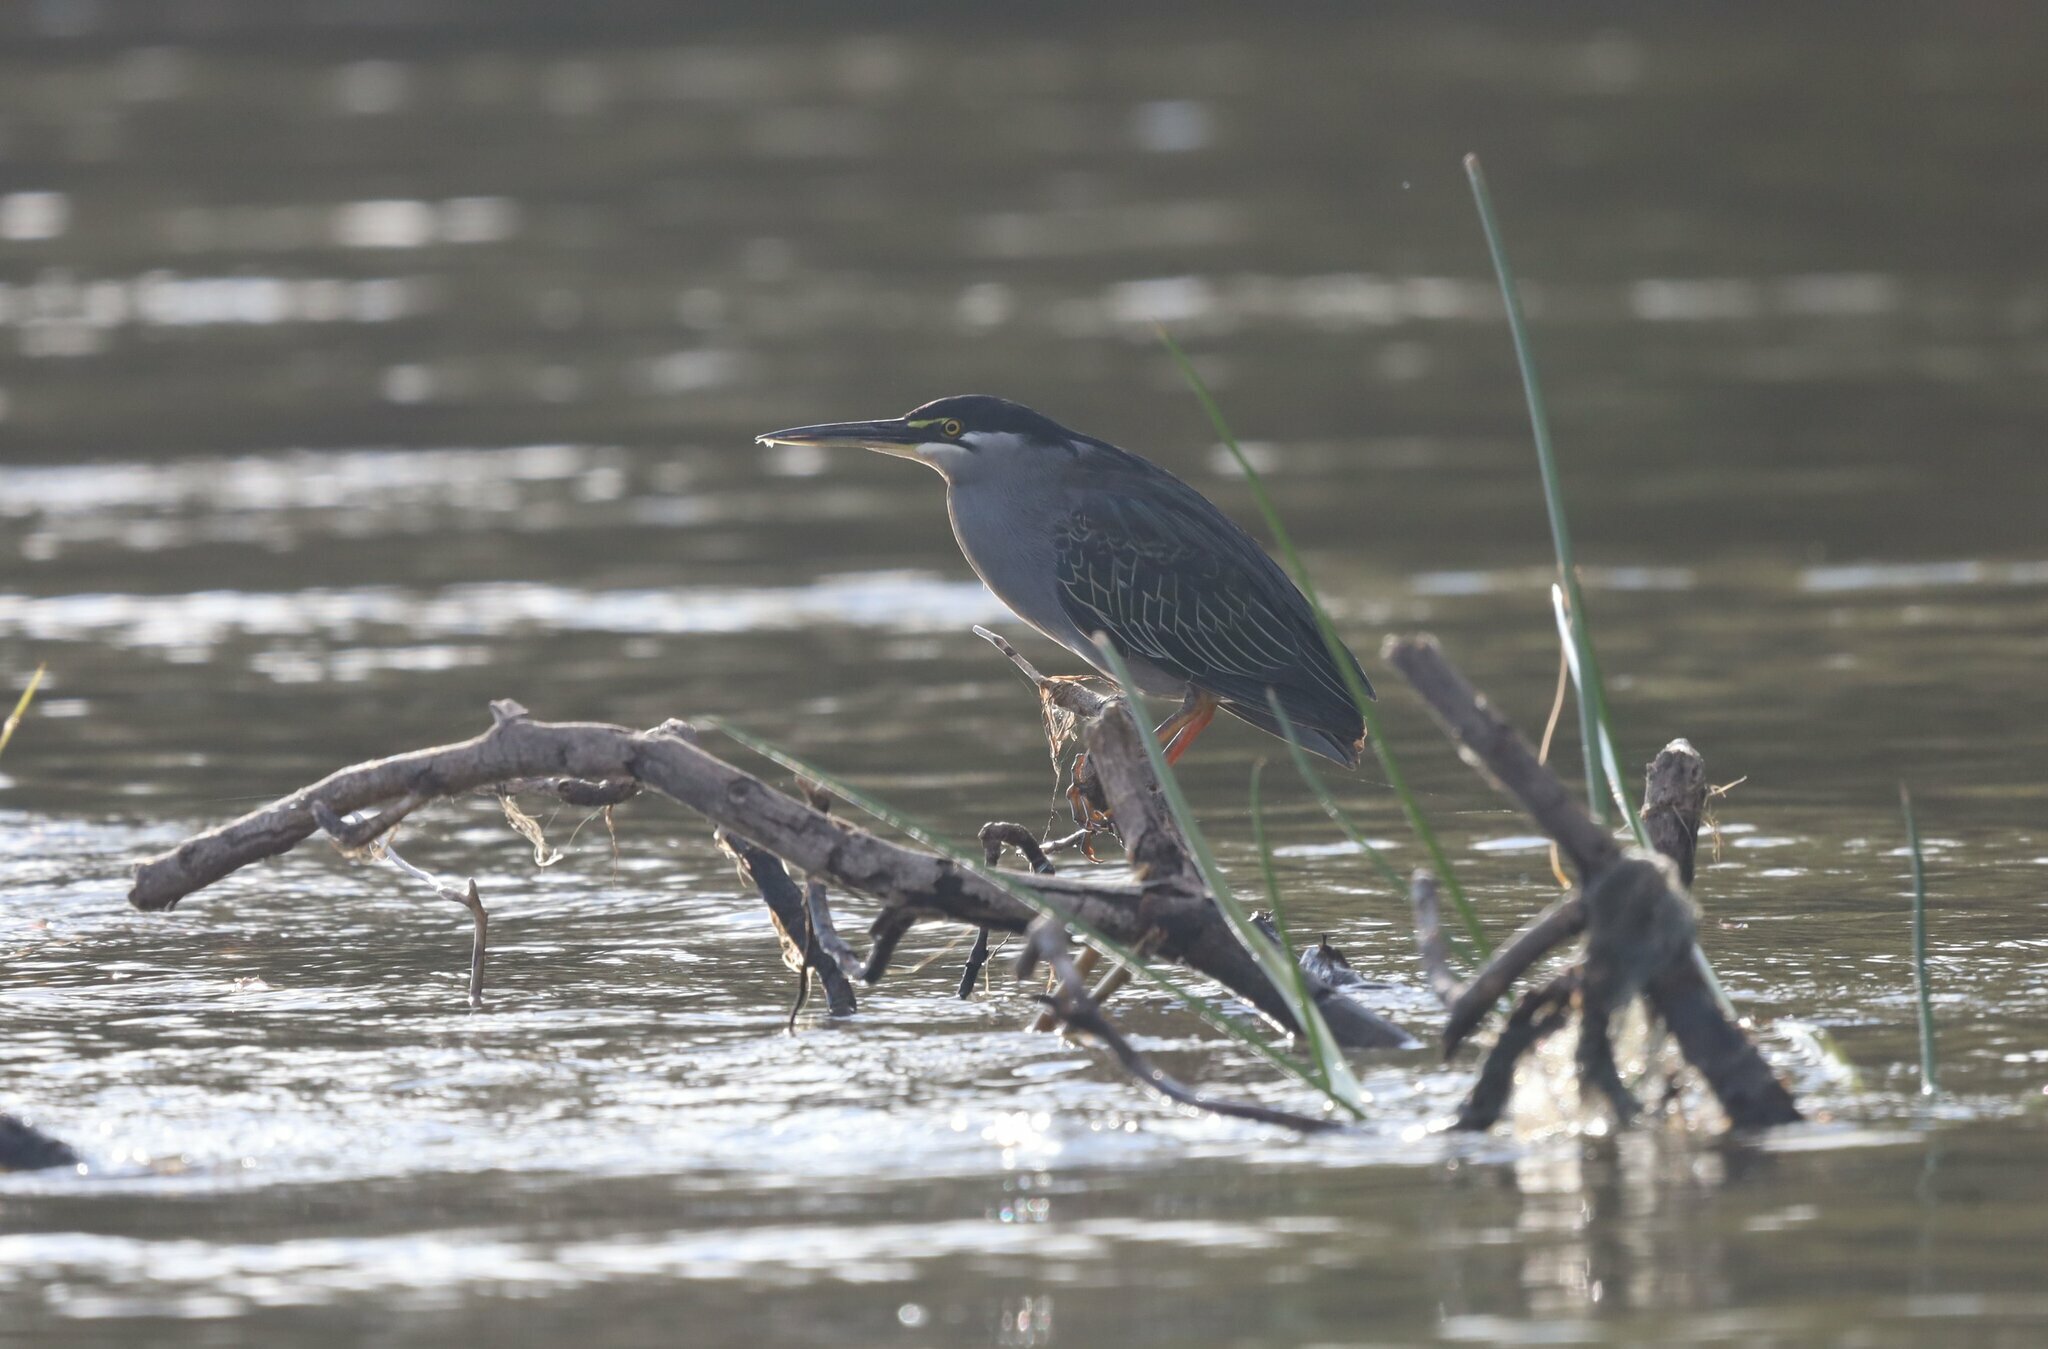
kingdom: Animalia
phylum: Chordata
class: Aves
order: Pelecaniformes
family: Ardeidae
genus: Butorides
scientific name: Butorides striata
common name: Striated heron
